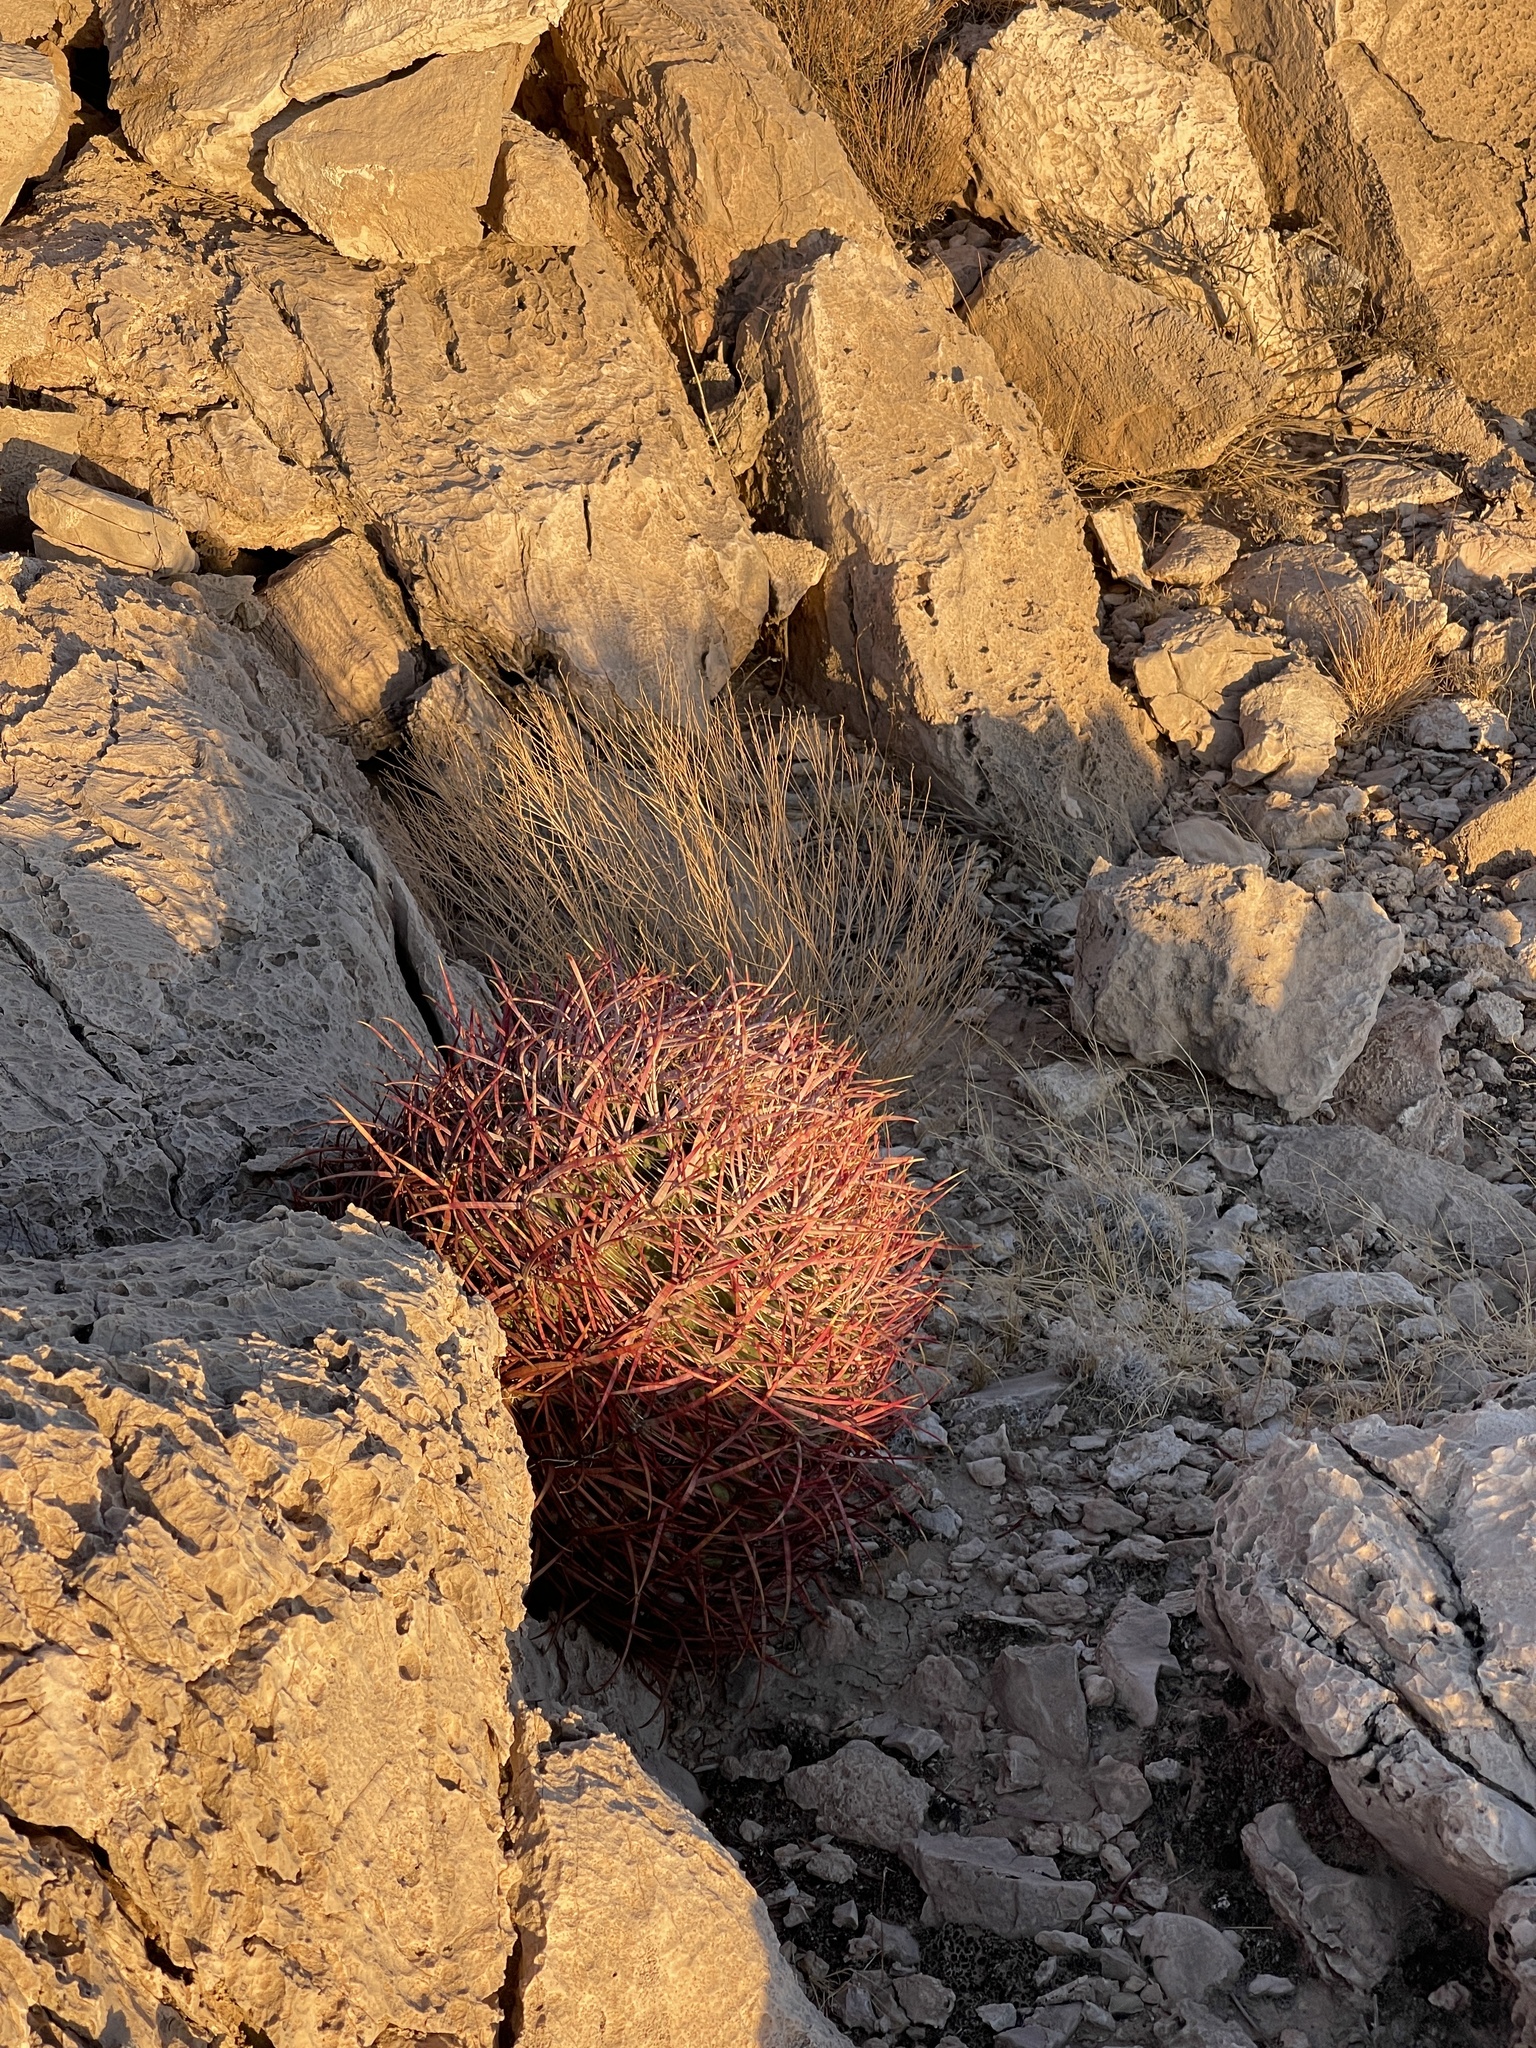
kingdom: Plantae
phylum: Tracheophyta
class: Magnoliopsida
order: Caryophyllales
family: Cactaceae
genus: Ferocactus
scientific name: Ferocactus cylindraceus
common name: California barrel cactus
